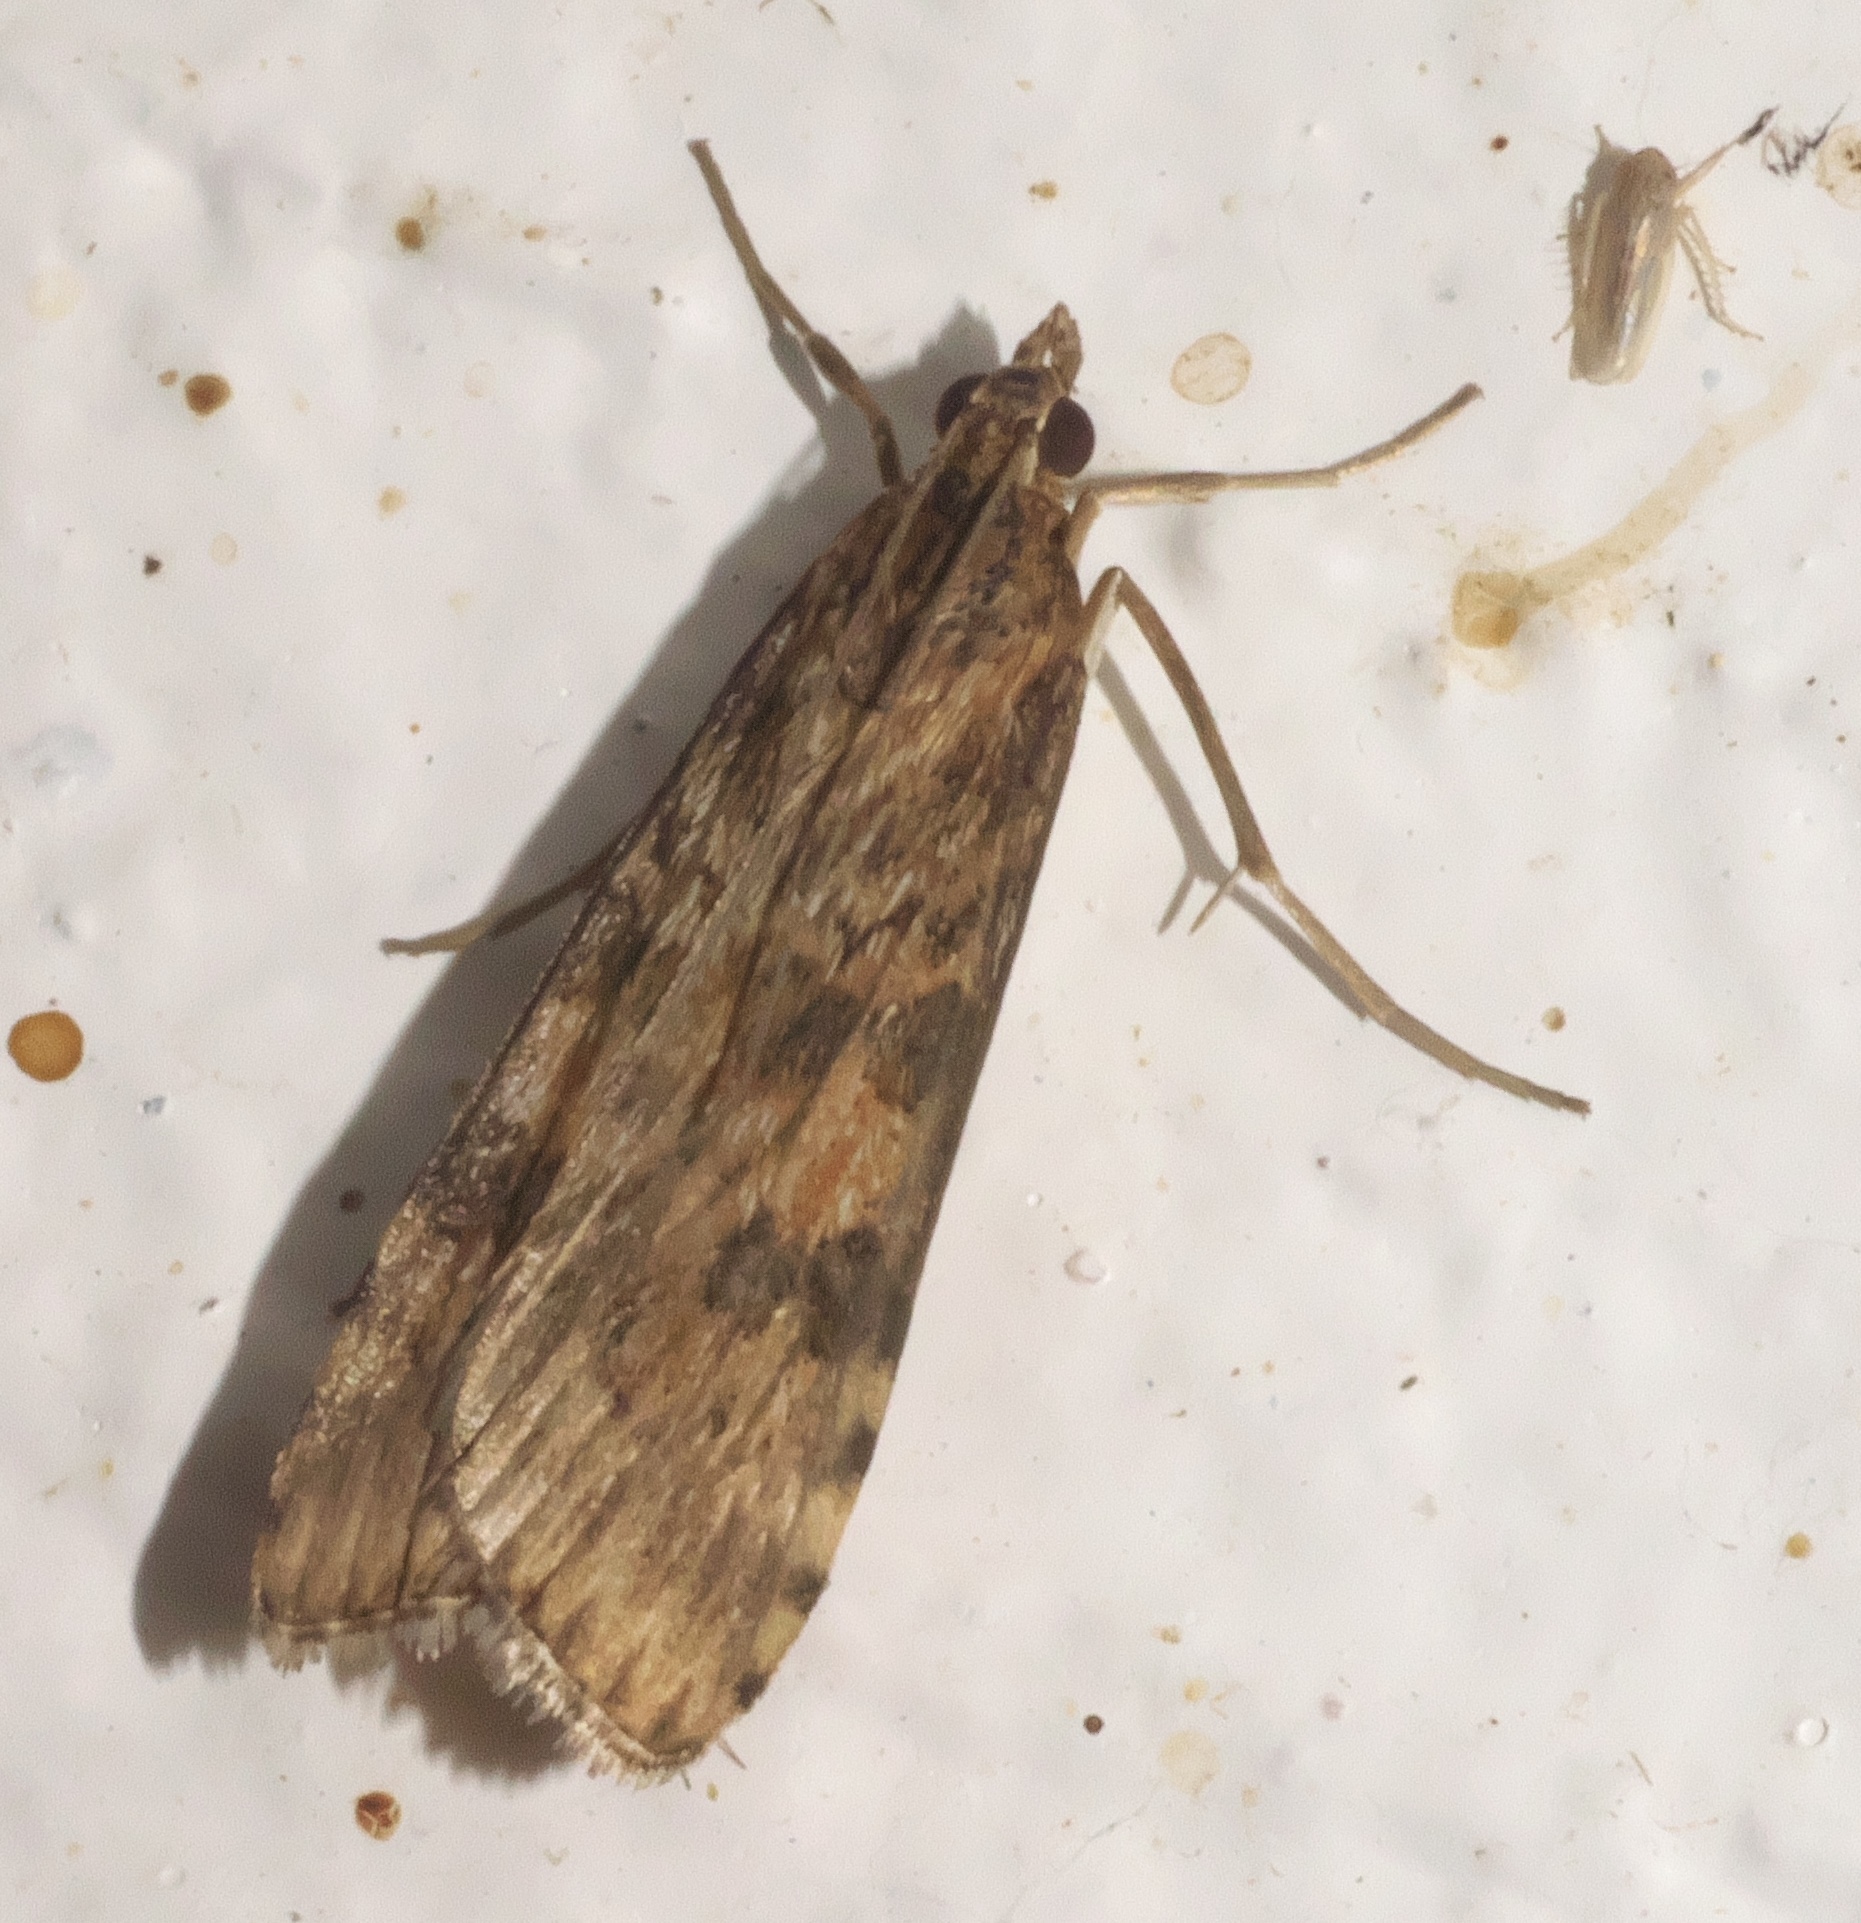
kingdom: Animalia
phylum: Arthropoda
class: Insecta
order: Lepidoptera
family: Crambidae
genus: Nomophila
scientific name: Nomophila nearctica
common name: American rush veneer
